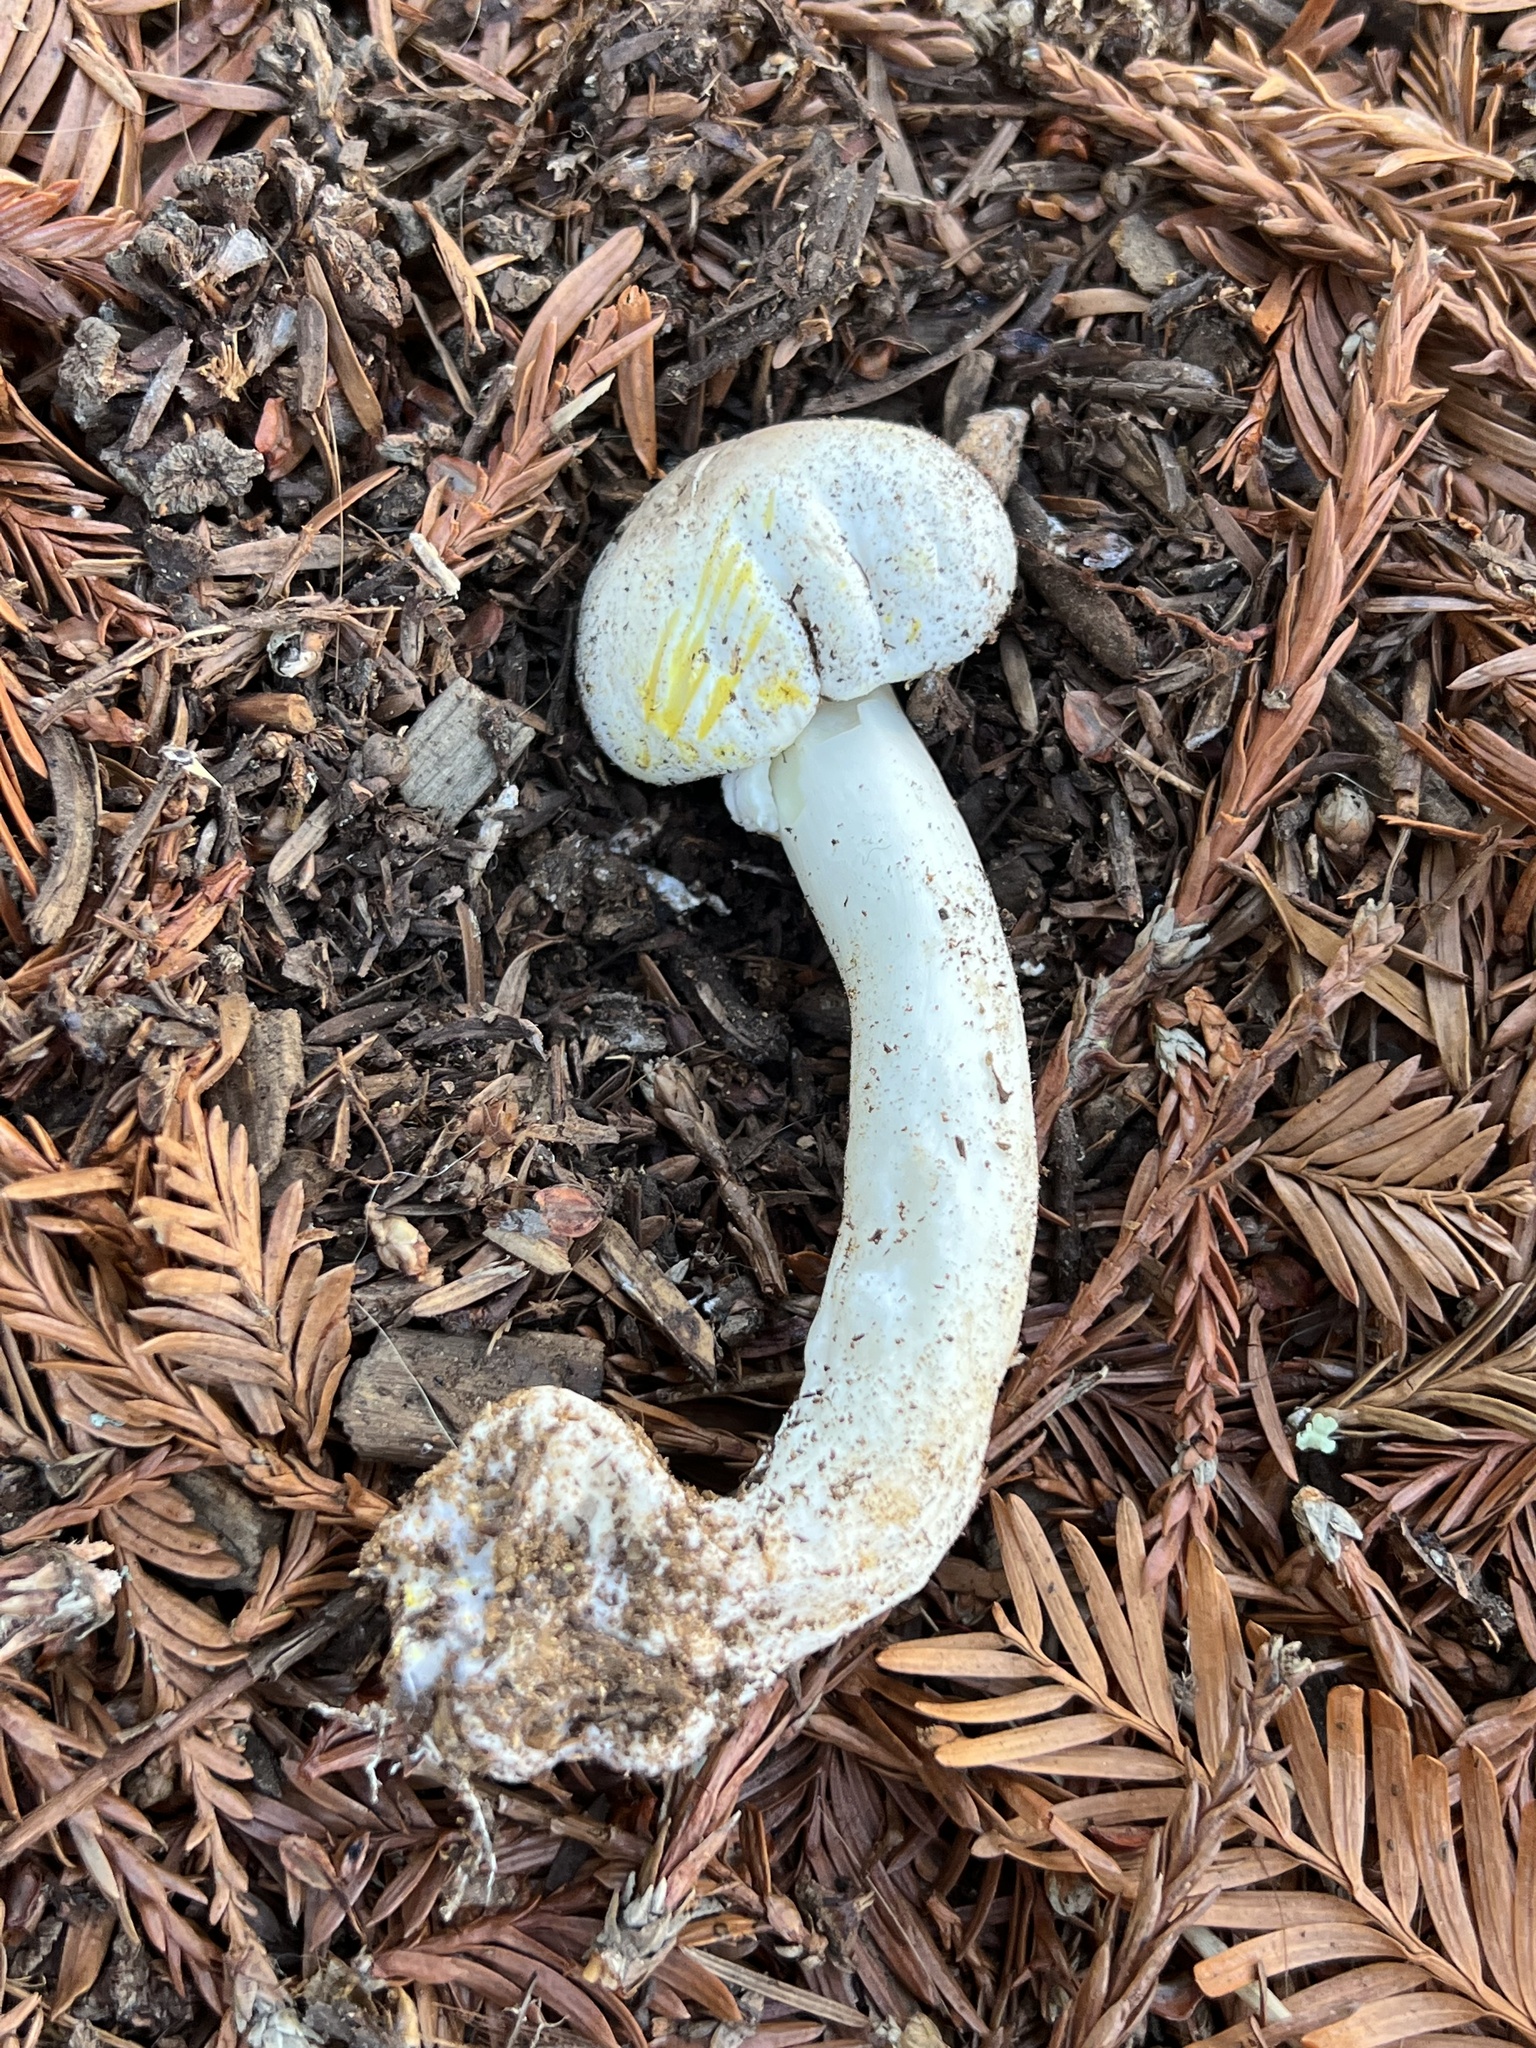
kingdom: Fungi
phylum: Basidiomycota
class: Agaricomycetes
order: Agaricales
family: Agaricaceae
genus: Agaricus
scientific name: Agaricus xanthodermus
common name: Yellow stainer
